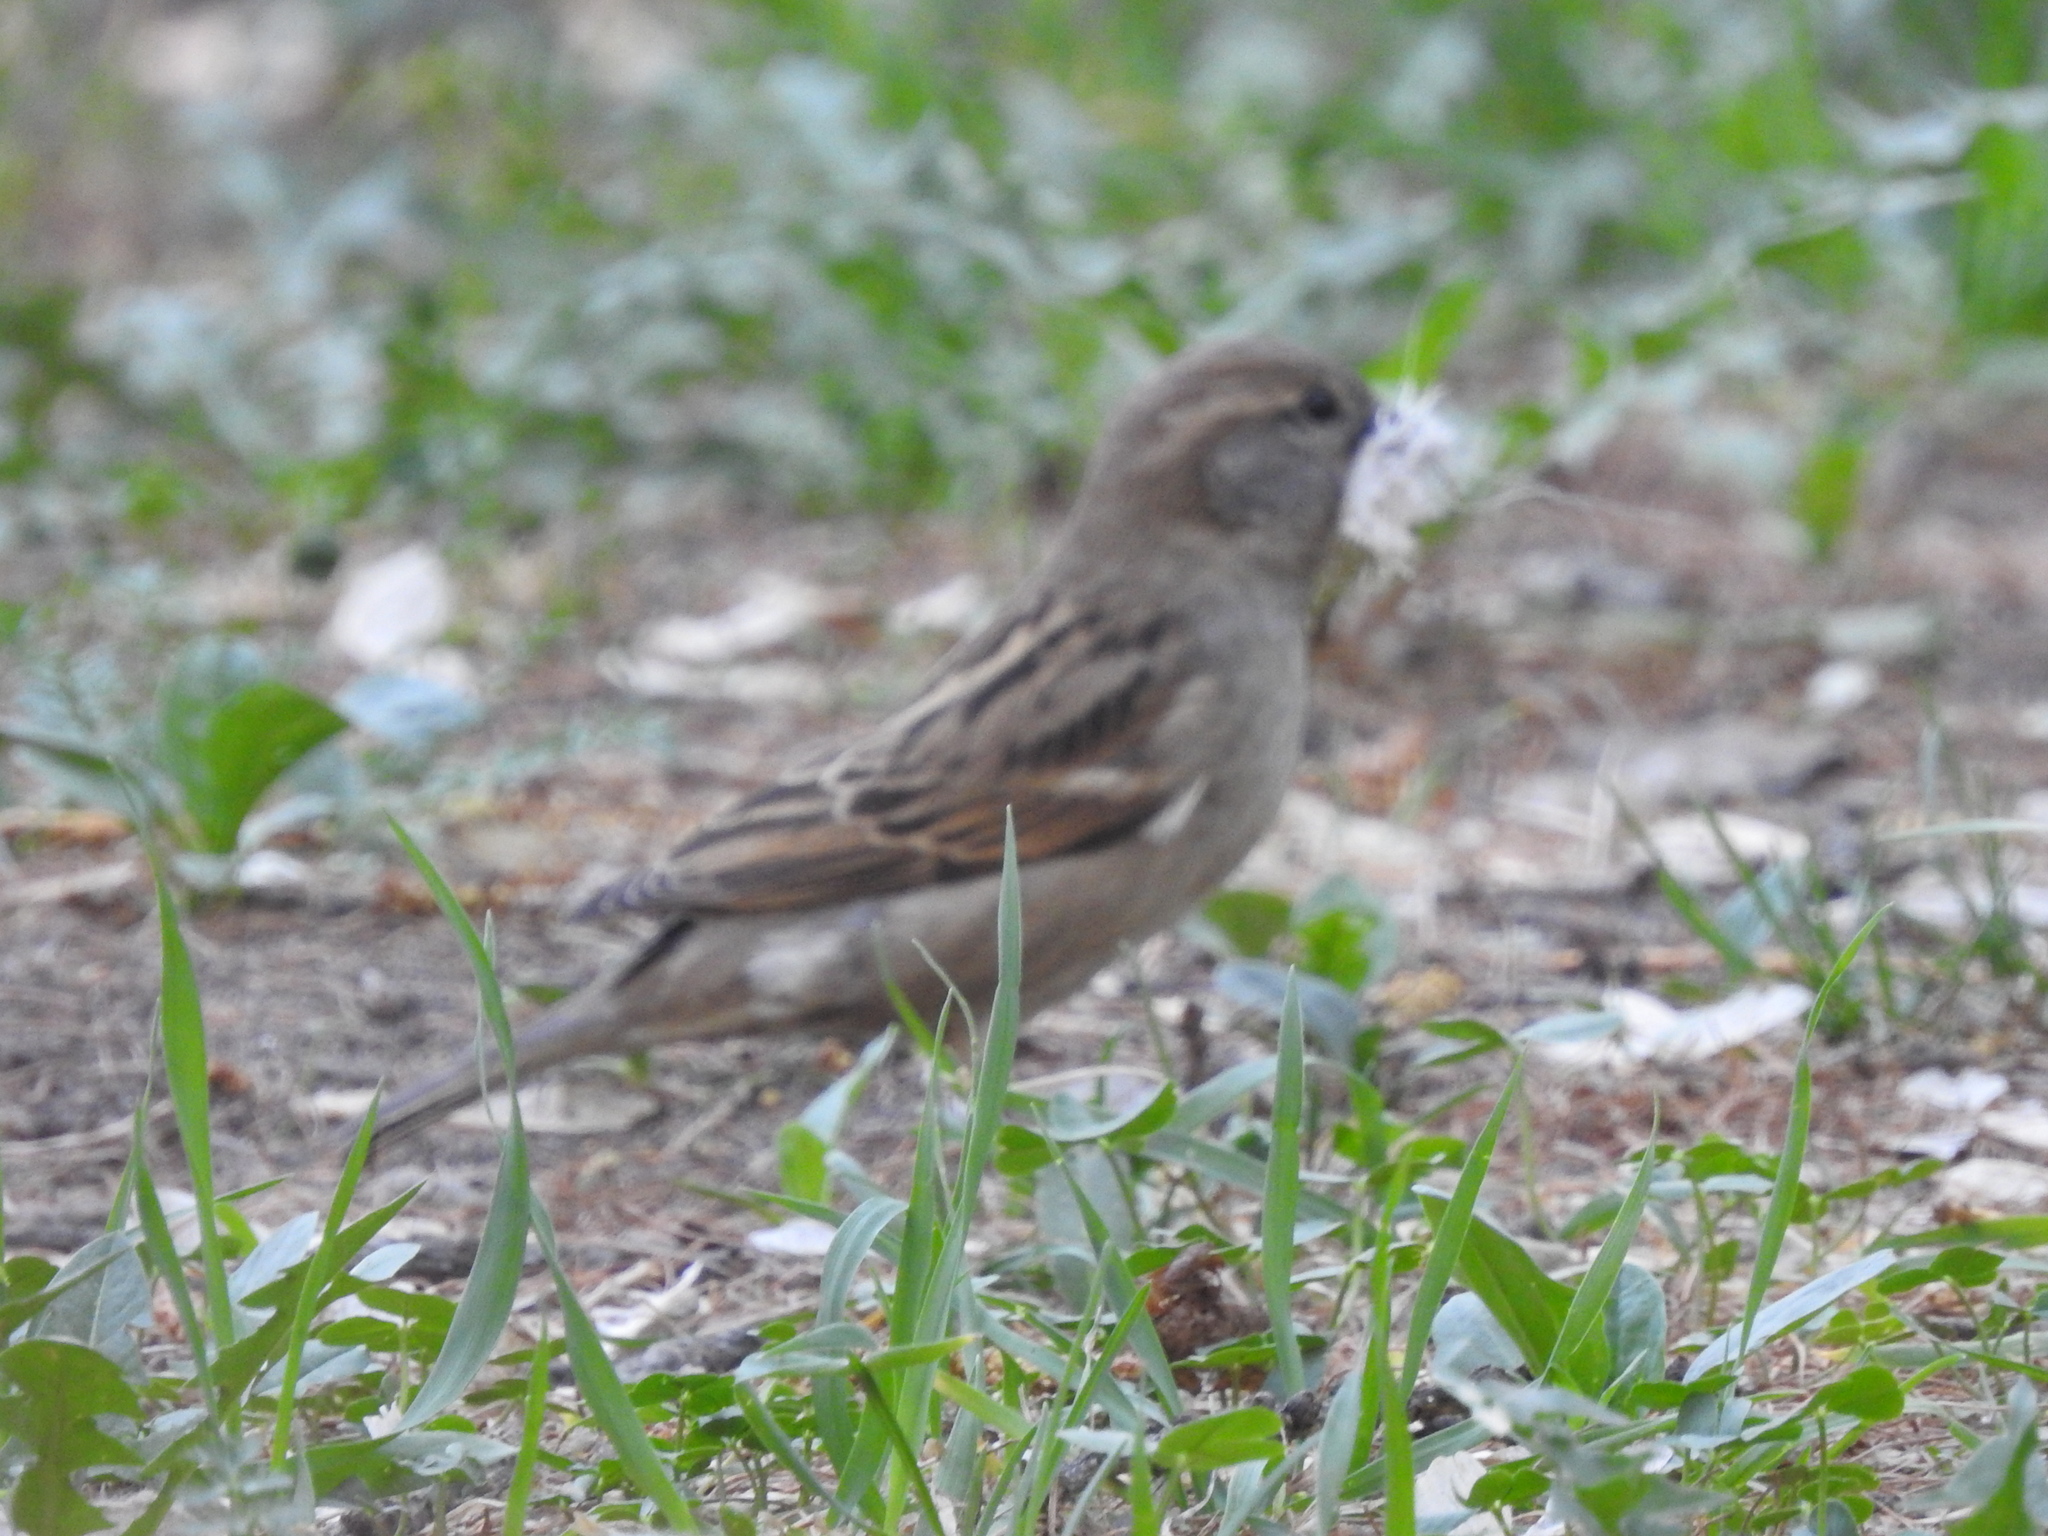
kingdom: Animalia
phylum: Chordata
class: Aves
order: Passeriformes
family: Passeridae
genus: Passer
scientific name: Passer domesticus
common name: House sparrow
